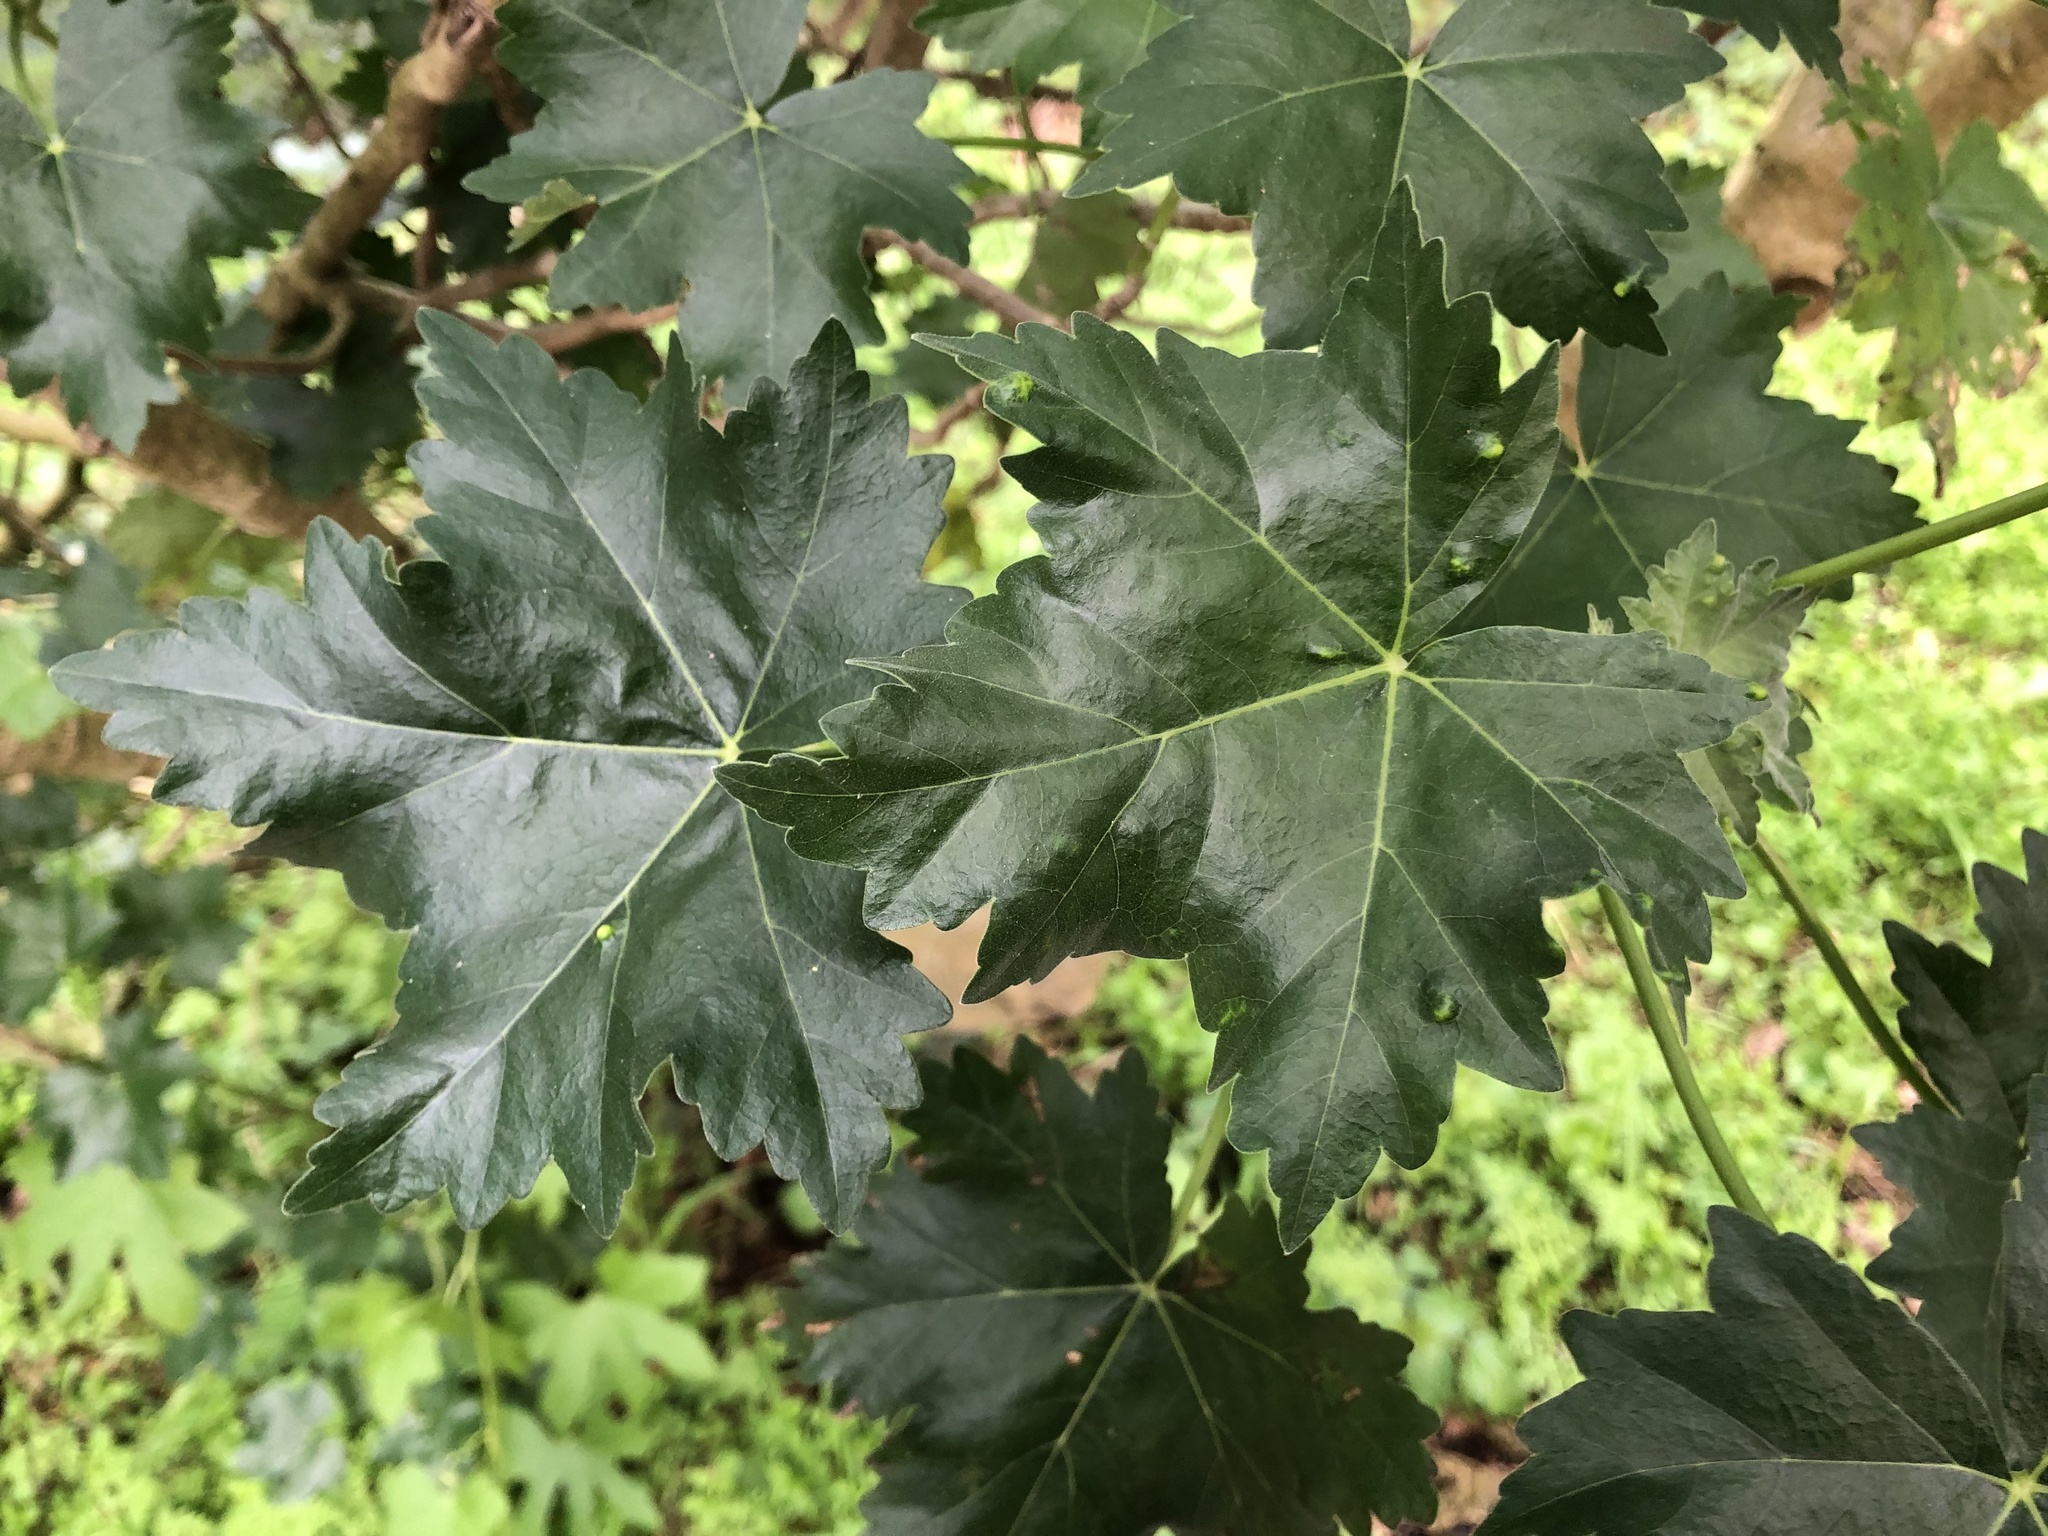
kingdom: Plantae
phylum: Tracheophyta
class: Magnoliopsida
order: Malvales
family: Malvaceae
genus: Malva
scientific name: Malva assurgentiflora
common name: Island mallow
